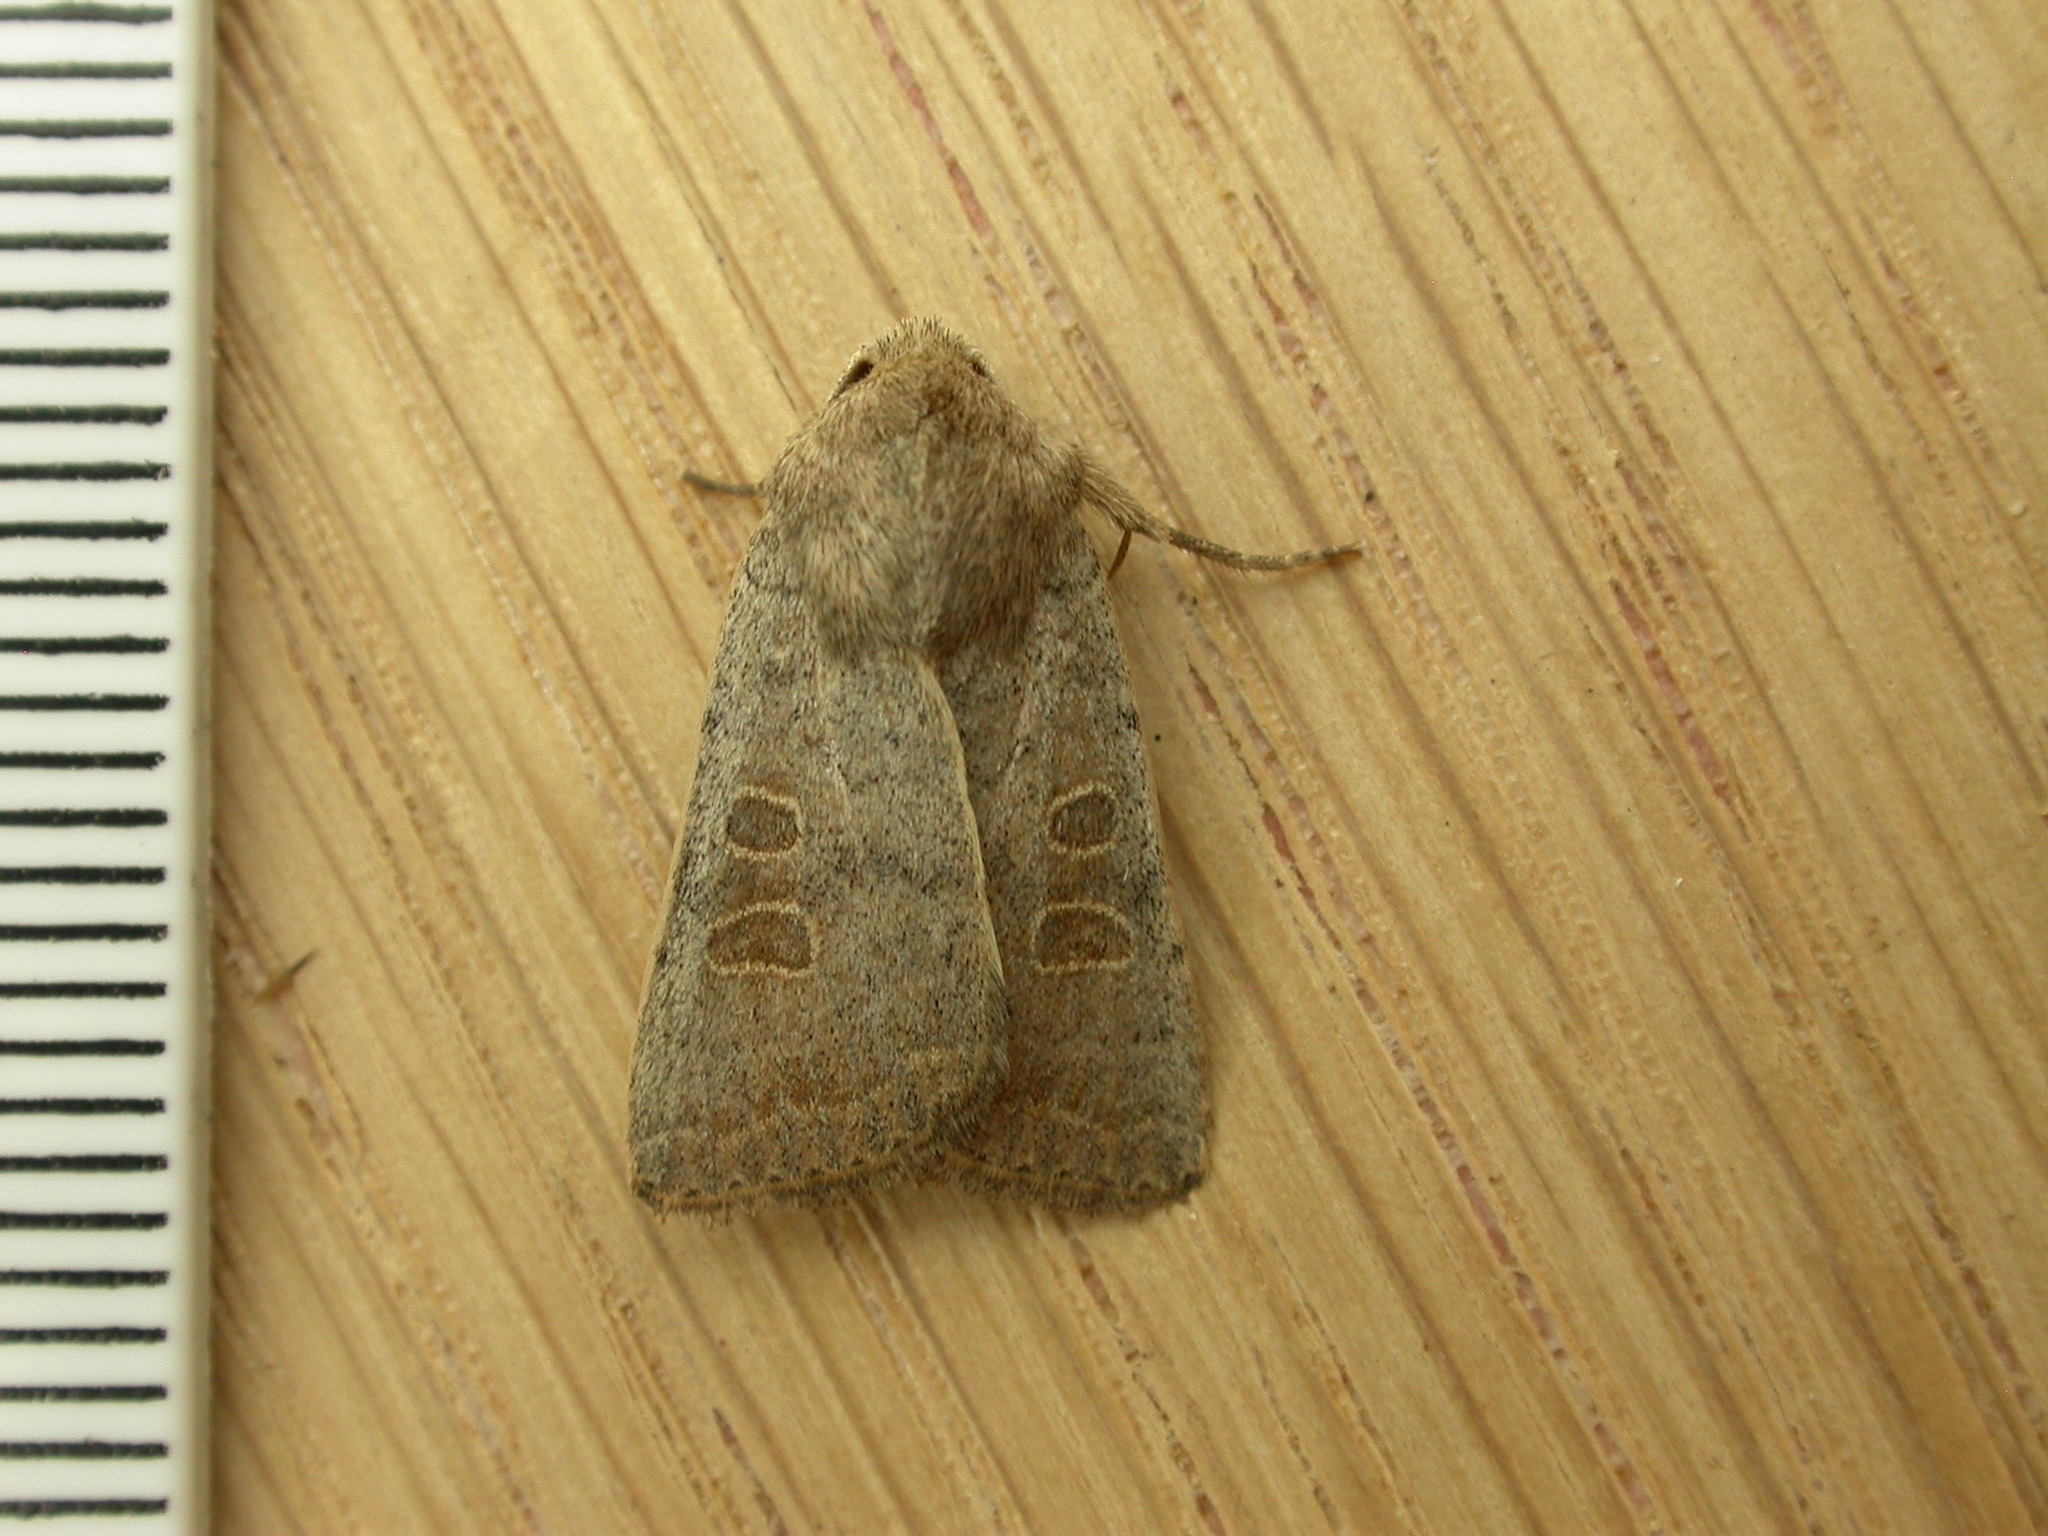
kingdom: Animalia
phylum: Arthropoda
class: Insecta
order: Lepidoptera
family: Noctuidae
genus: Hoplodrina
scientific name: Hoplodrina ambigua
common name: Vine's rustic
